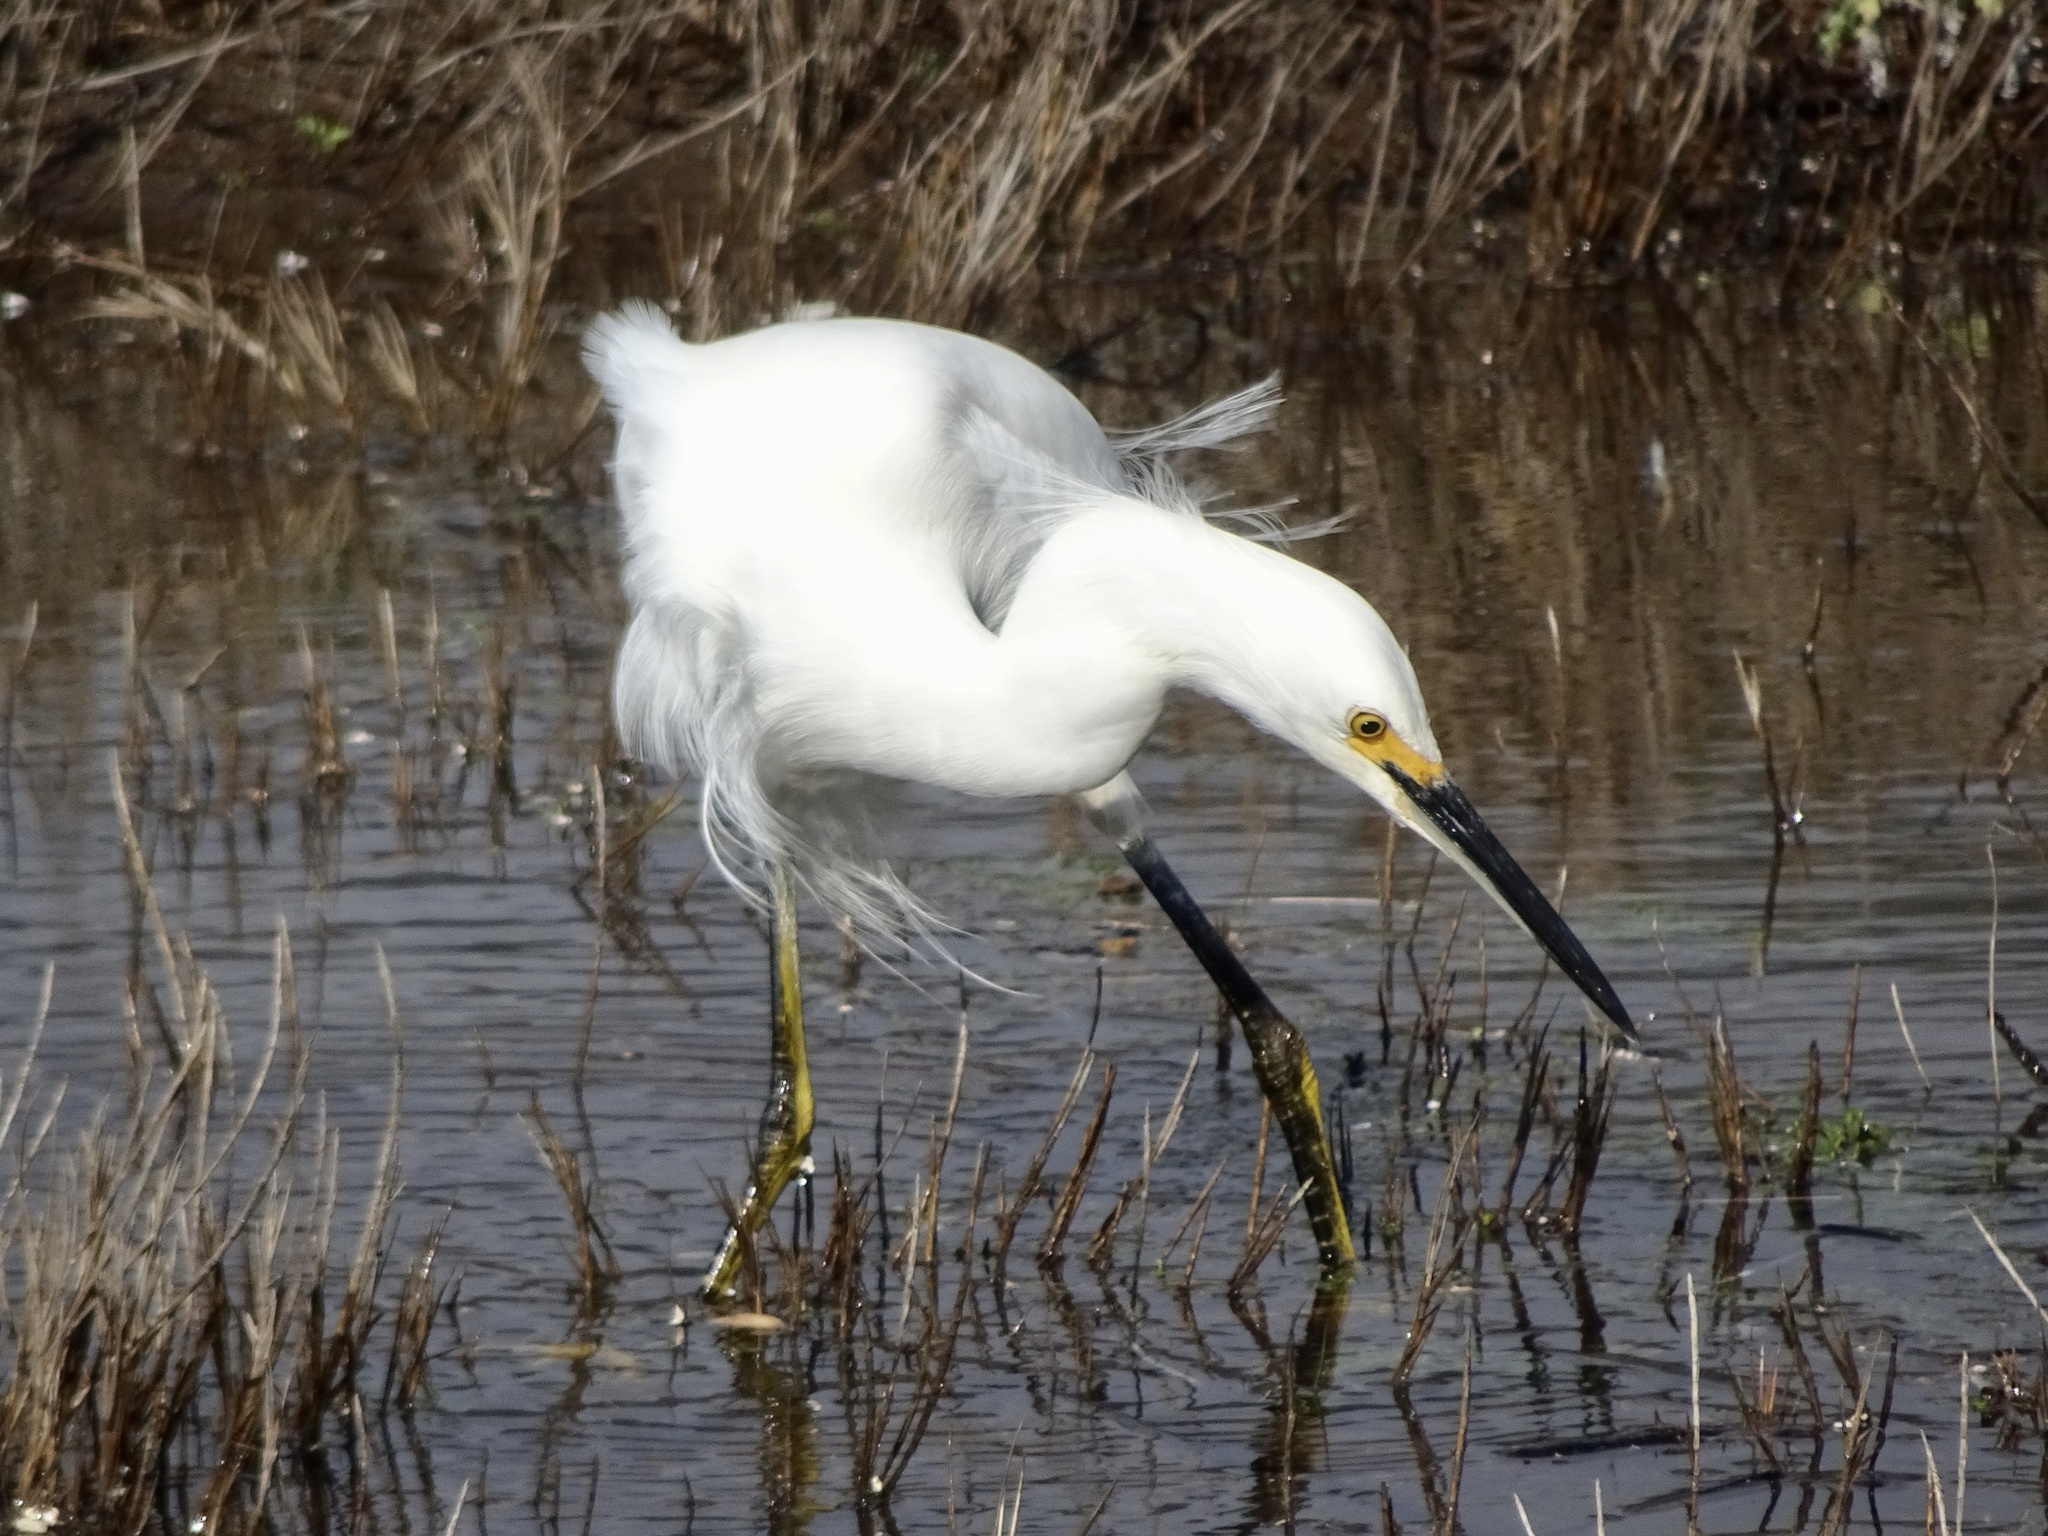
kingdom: Animalia
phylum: Chordata
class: Aves
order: Pelecaniformes
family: Ardeidae
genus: Egretta
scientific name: Egretta thula
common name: Snowy egret
